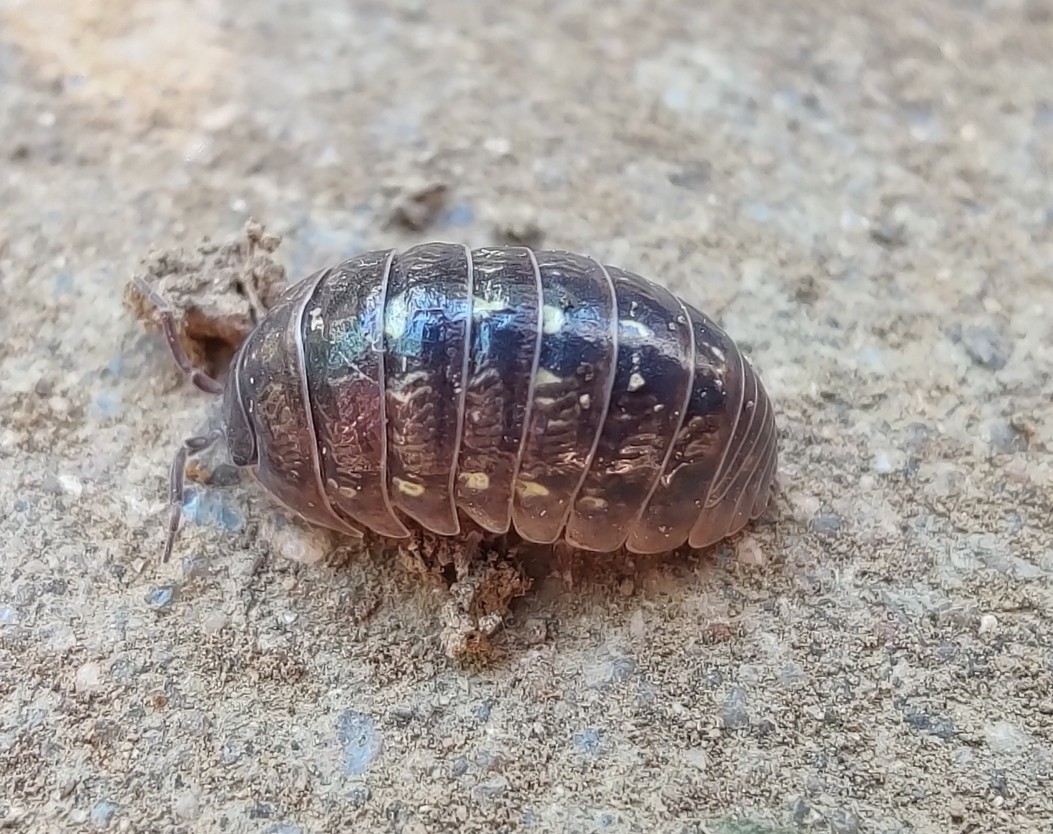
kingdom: Animalia
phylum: Arthropoda
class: Malacostraca
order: Isopoda
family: Armadillidiidae
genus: Armadillidium
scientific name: Armadillidium vulgare
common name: Common pill woodlouse
